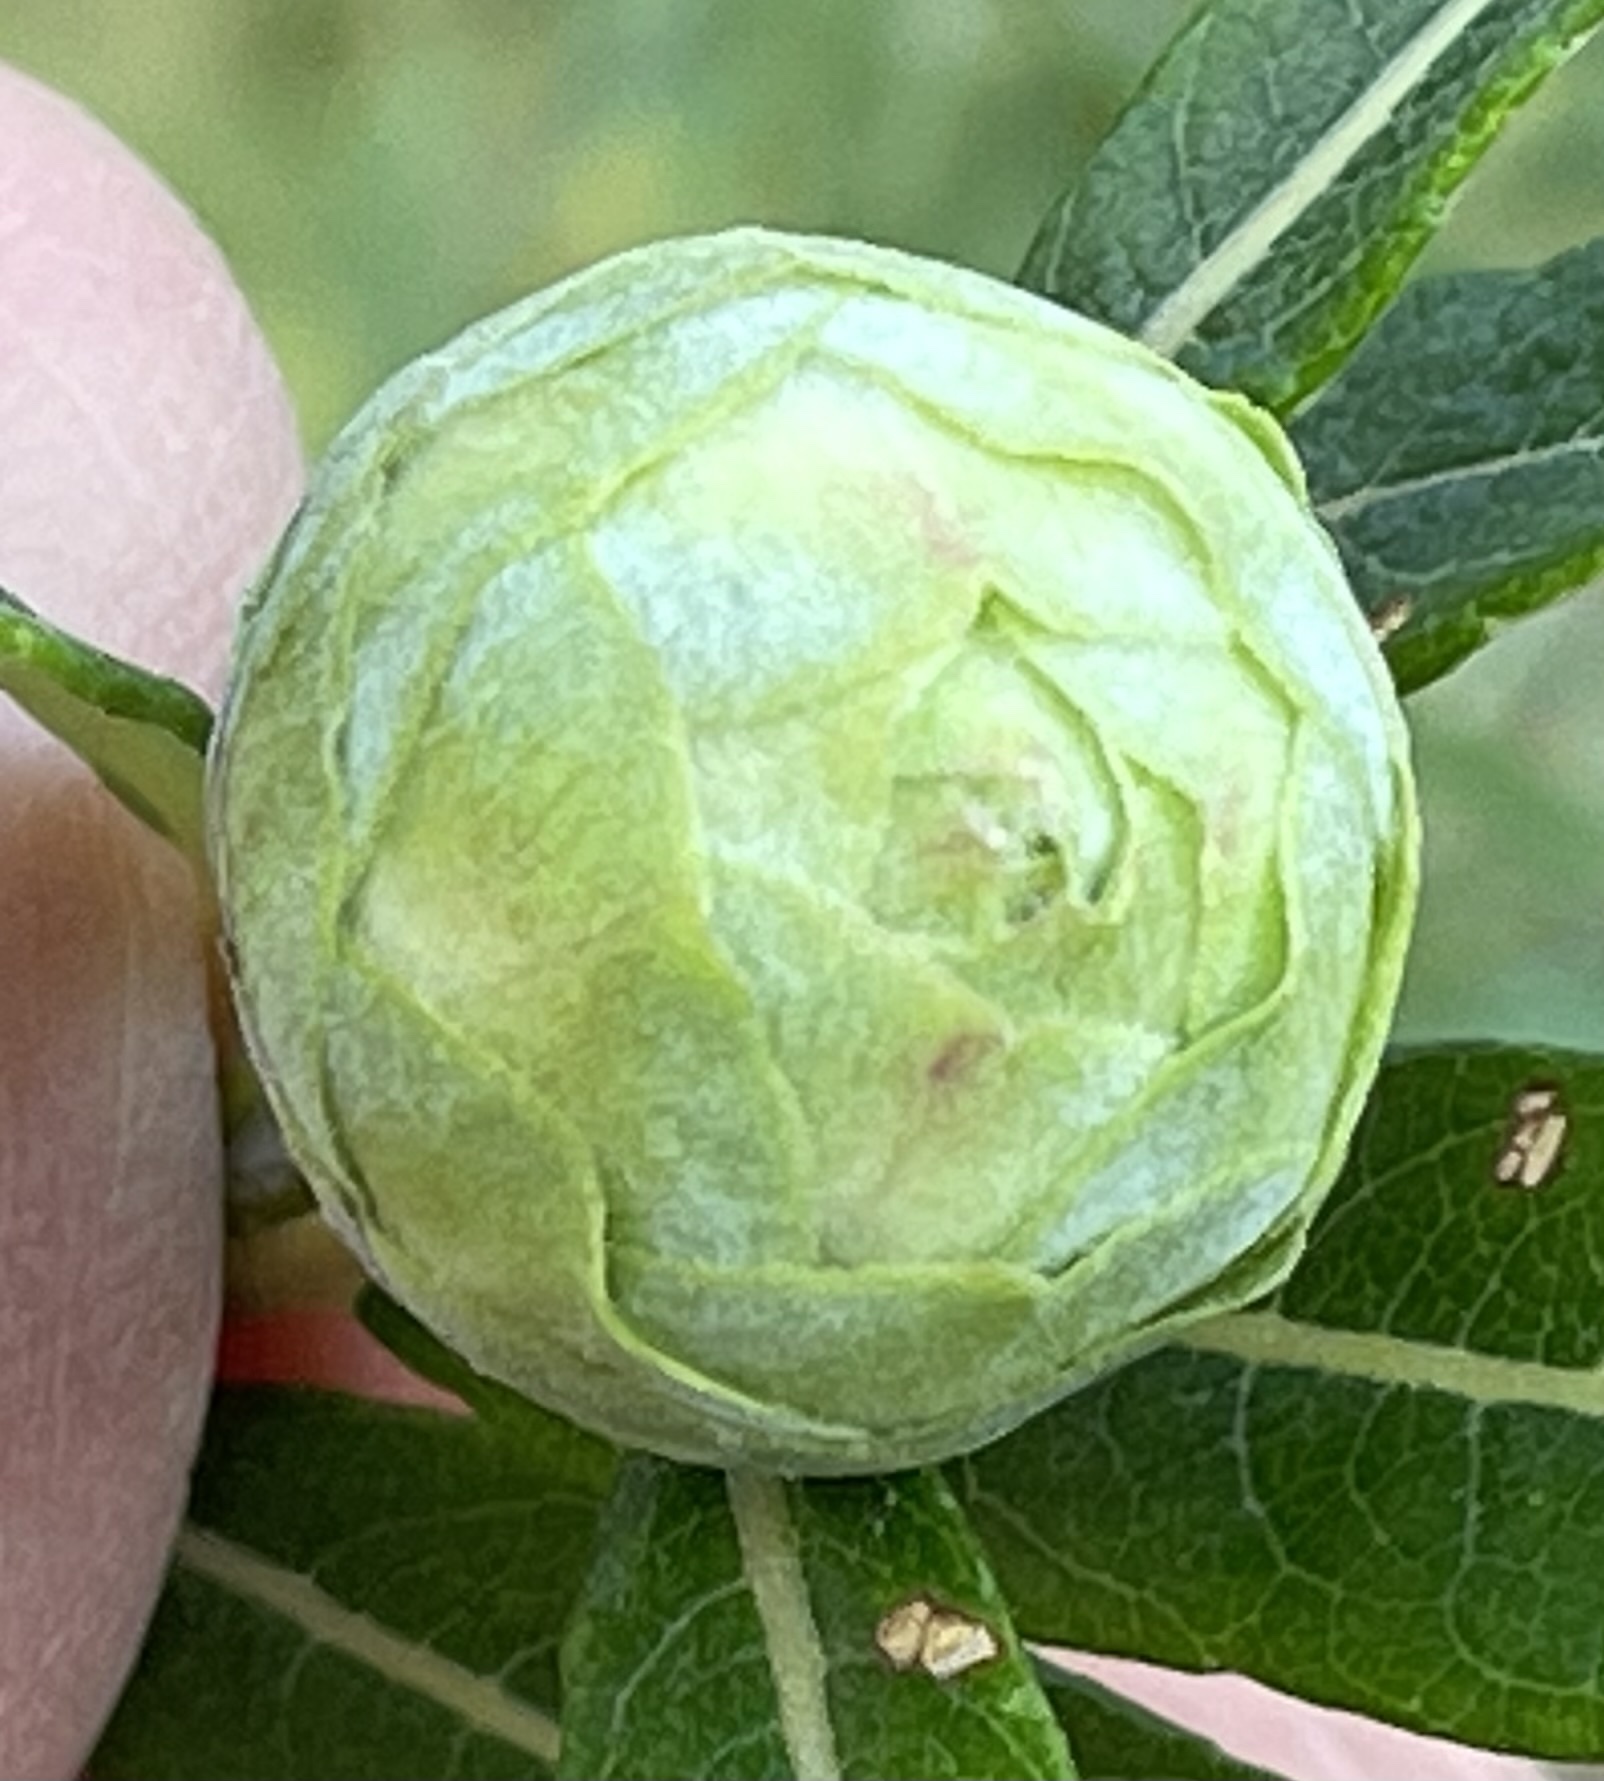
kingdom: Animalia
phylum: Arthropoda
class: Insecta
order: Diptera
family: Cecidomyiidae
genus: Rabdophaga
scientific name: Rabdophaga strobiloides
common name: Willow pinecone gall midge
